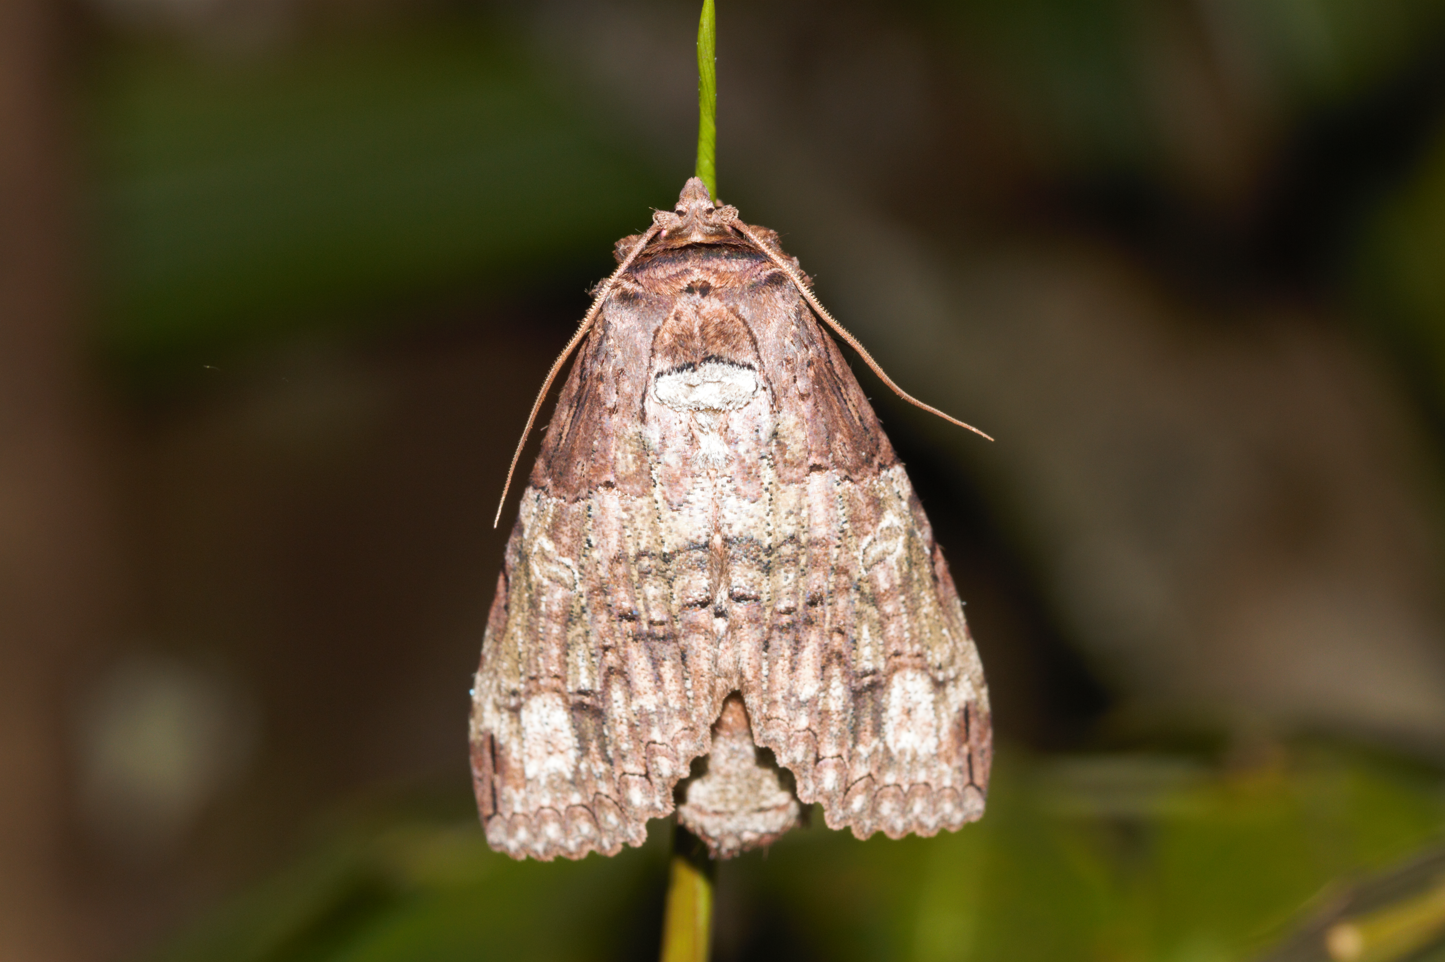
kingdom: Animalia
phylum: Arthropoda
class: Insecta
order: Lepidoptera
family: Notodontidae
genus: Ophitis
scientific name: Ophitis mistura
